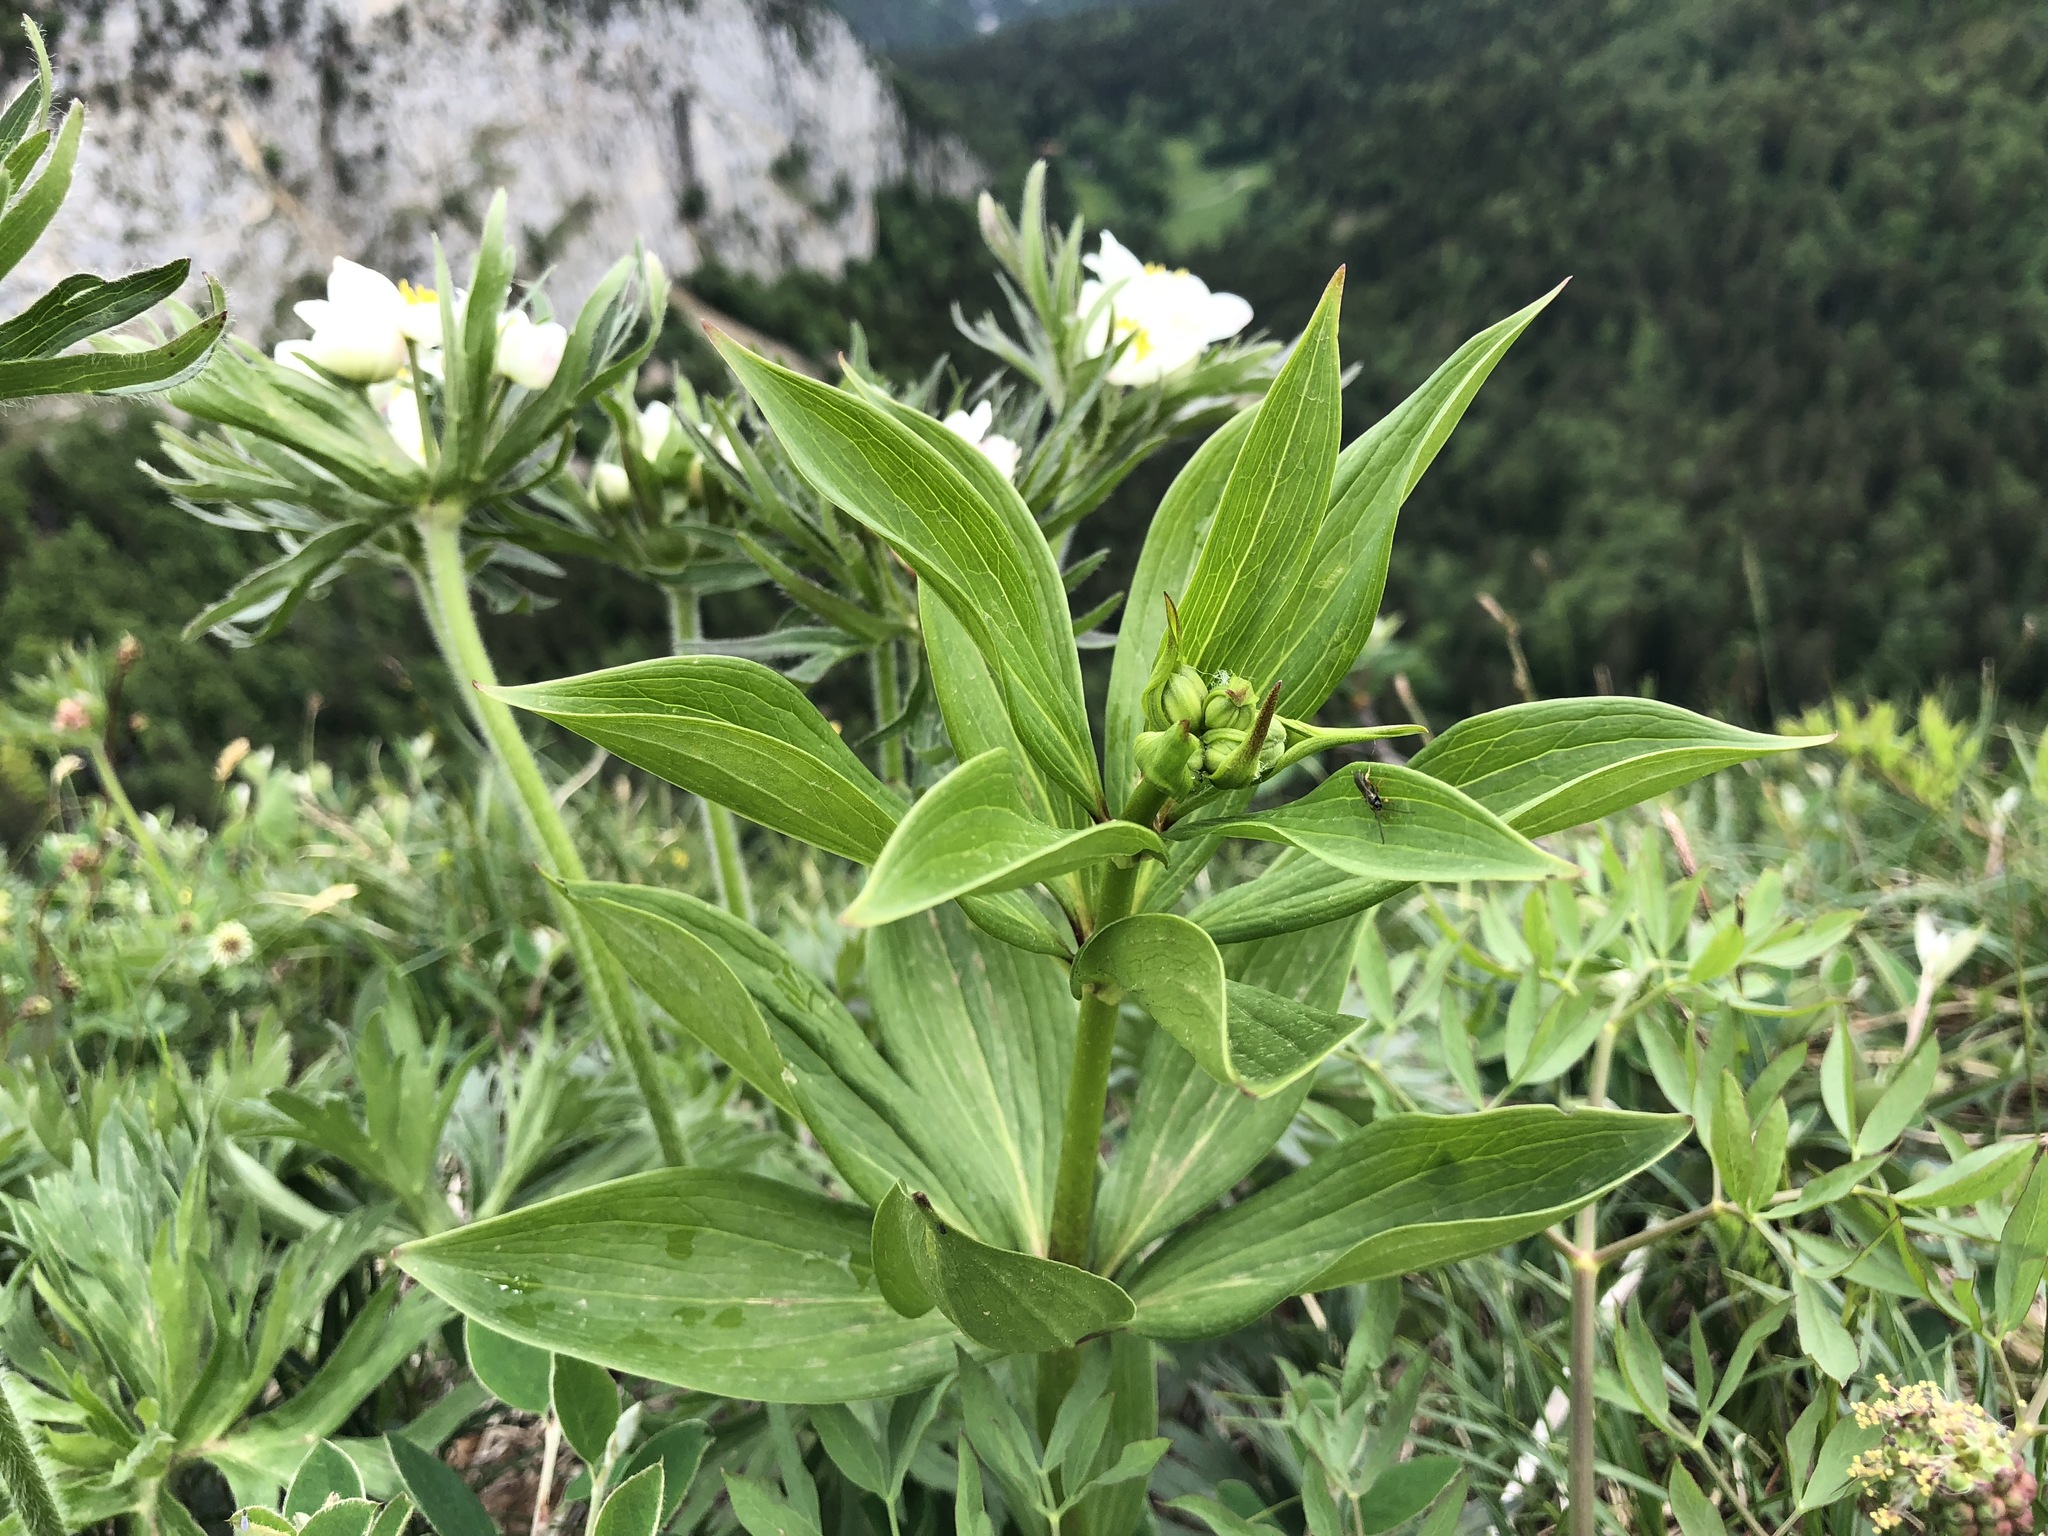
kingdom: Plantae
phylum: Tracheophyta
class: Liliopsida
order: Liliales
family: Liliaceae
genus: Lilium
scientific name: Lilium martagon
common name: Martagon lily
